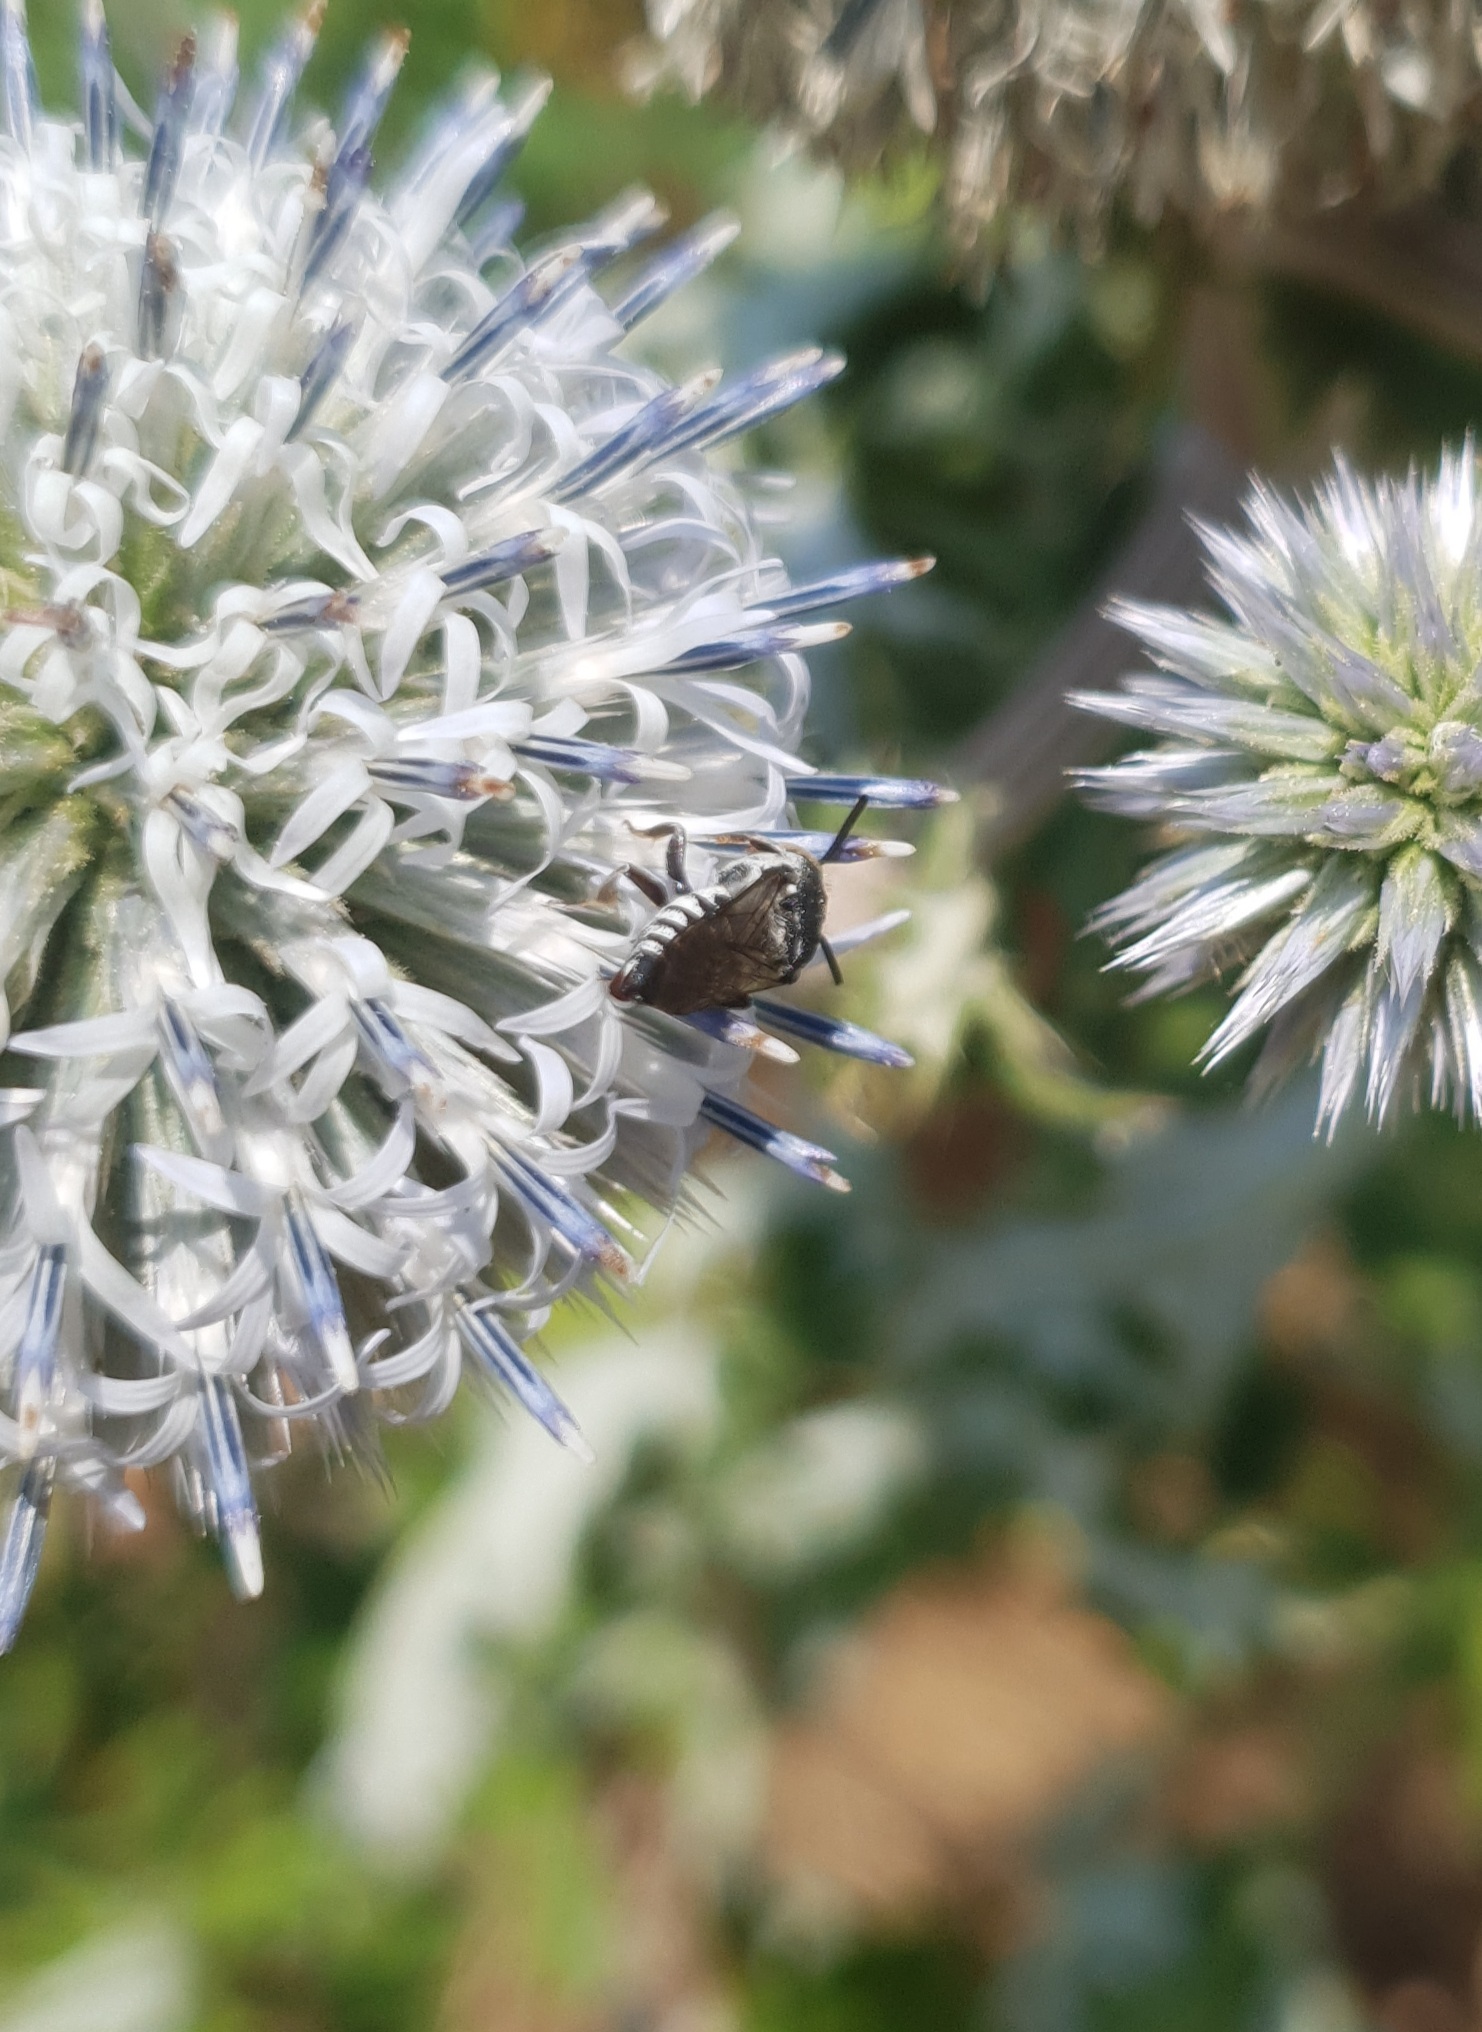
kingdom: Animalia
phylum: Arthropoda
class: Insecta
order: Hymenoptera
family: Megachilidae
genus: Coelioxys
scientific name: Coelioxys afra
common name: Short sharp-tail bee
